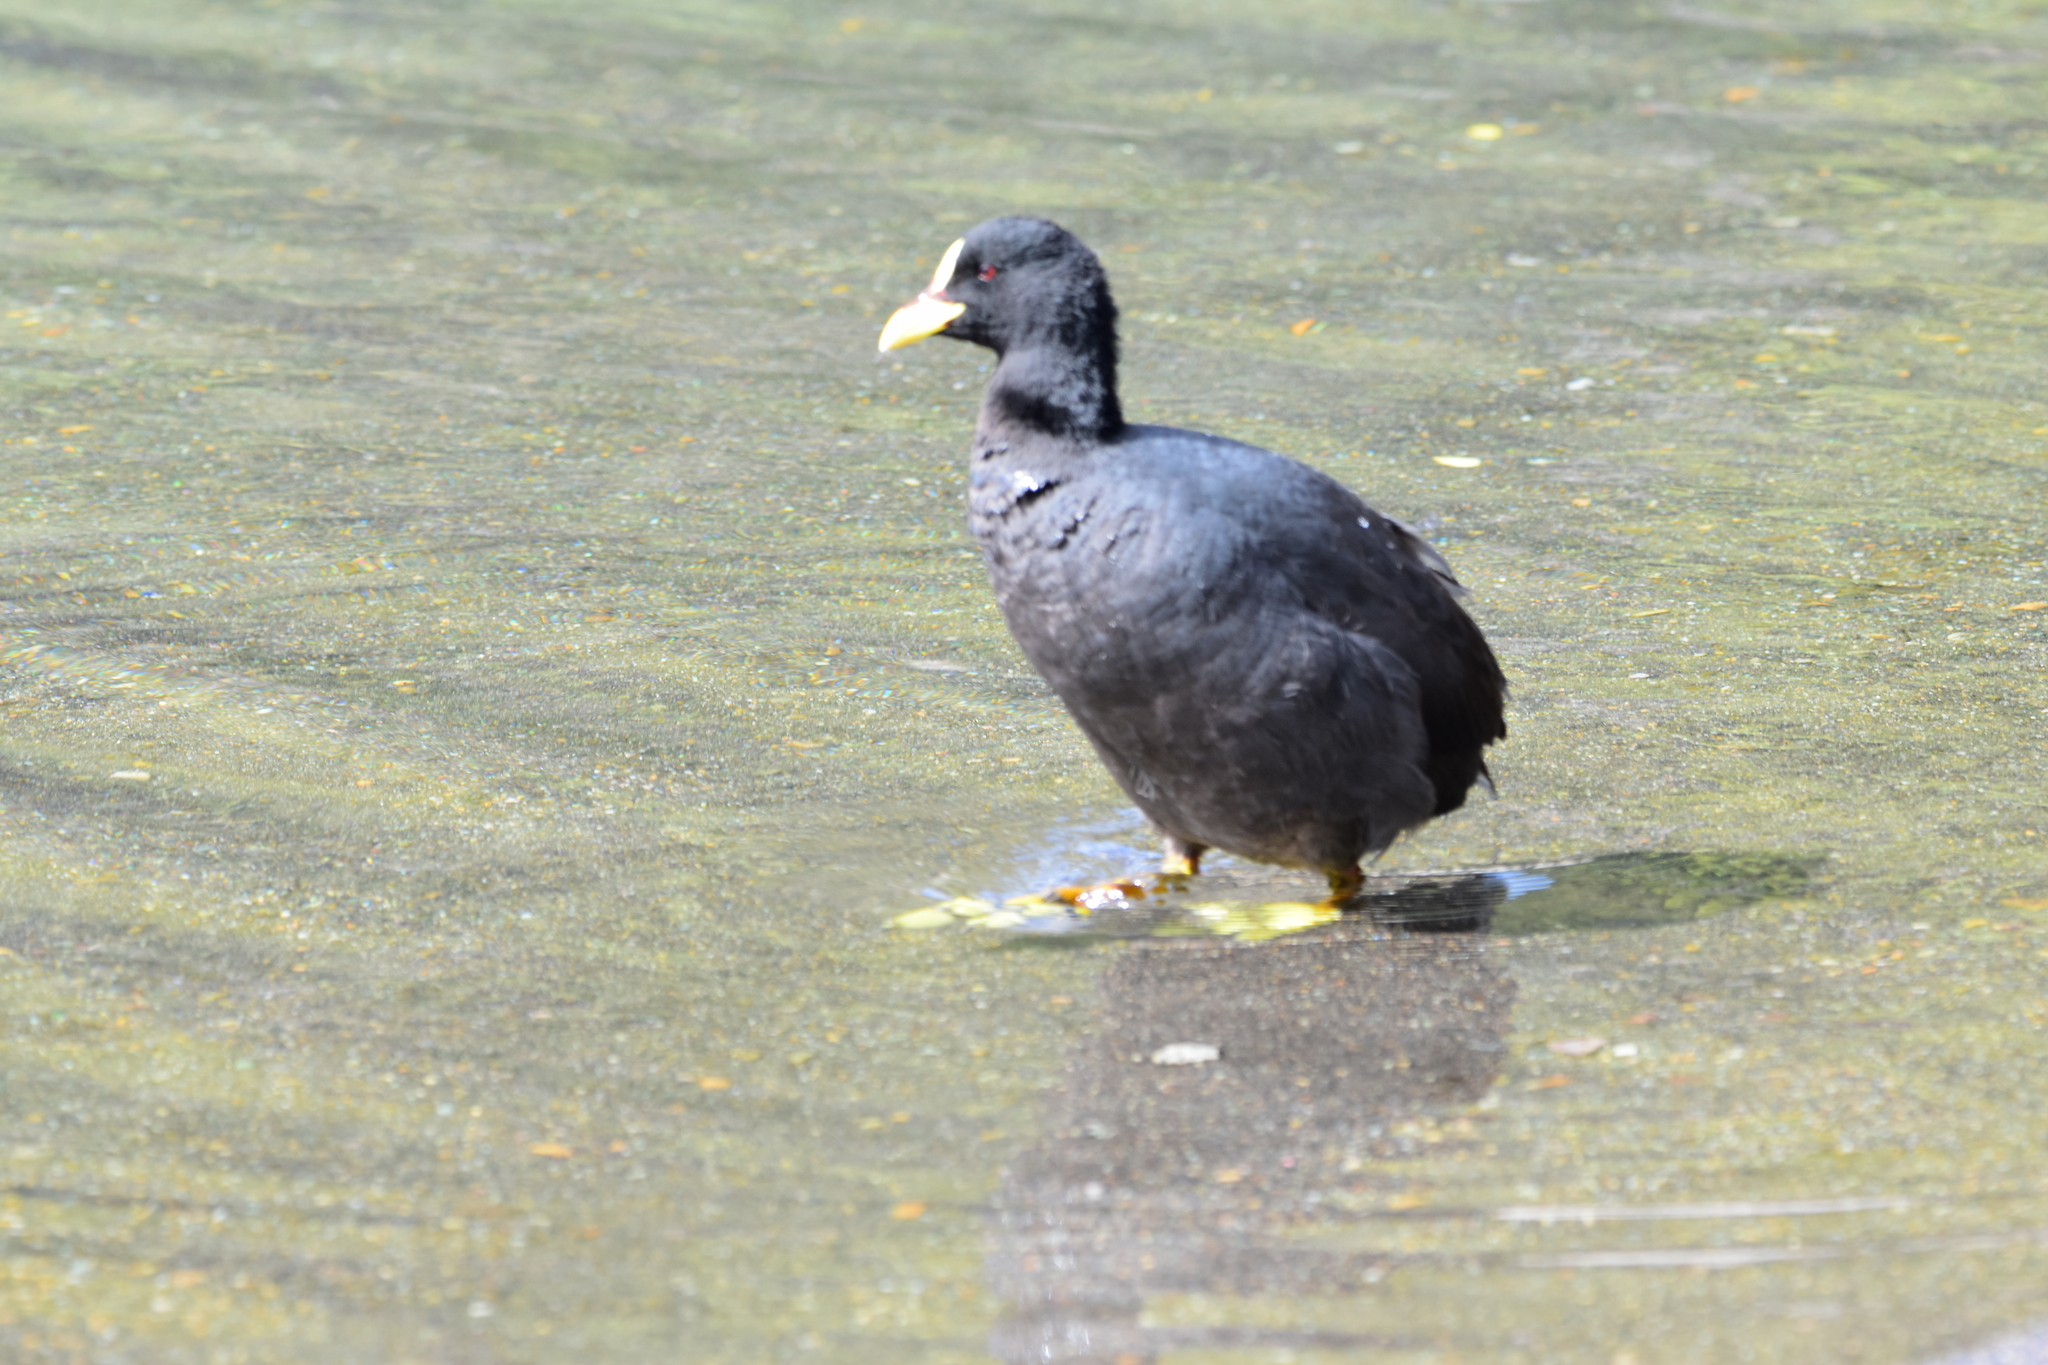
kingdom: Animalia
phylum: Chordata
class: Aves
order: Gruiformes
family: Rallidae
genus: Fulica
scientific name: Fulica armillata
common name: Red-gartered coot
